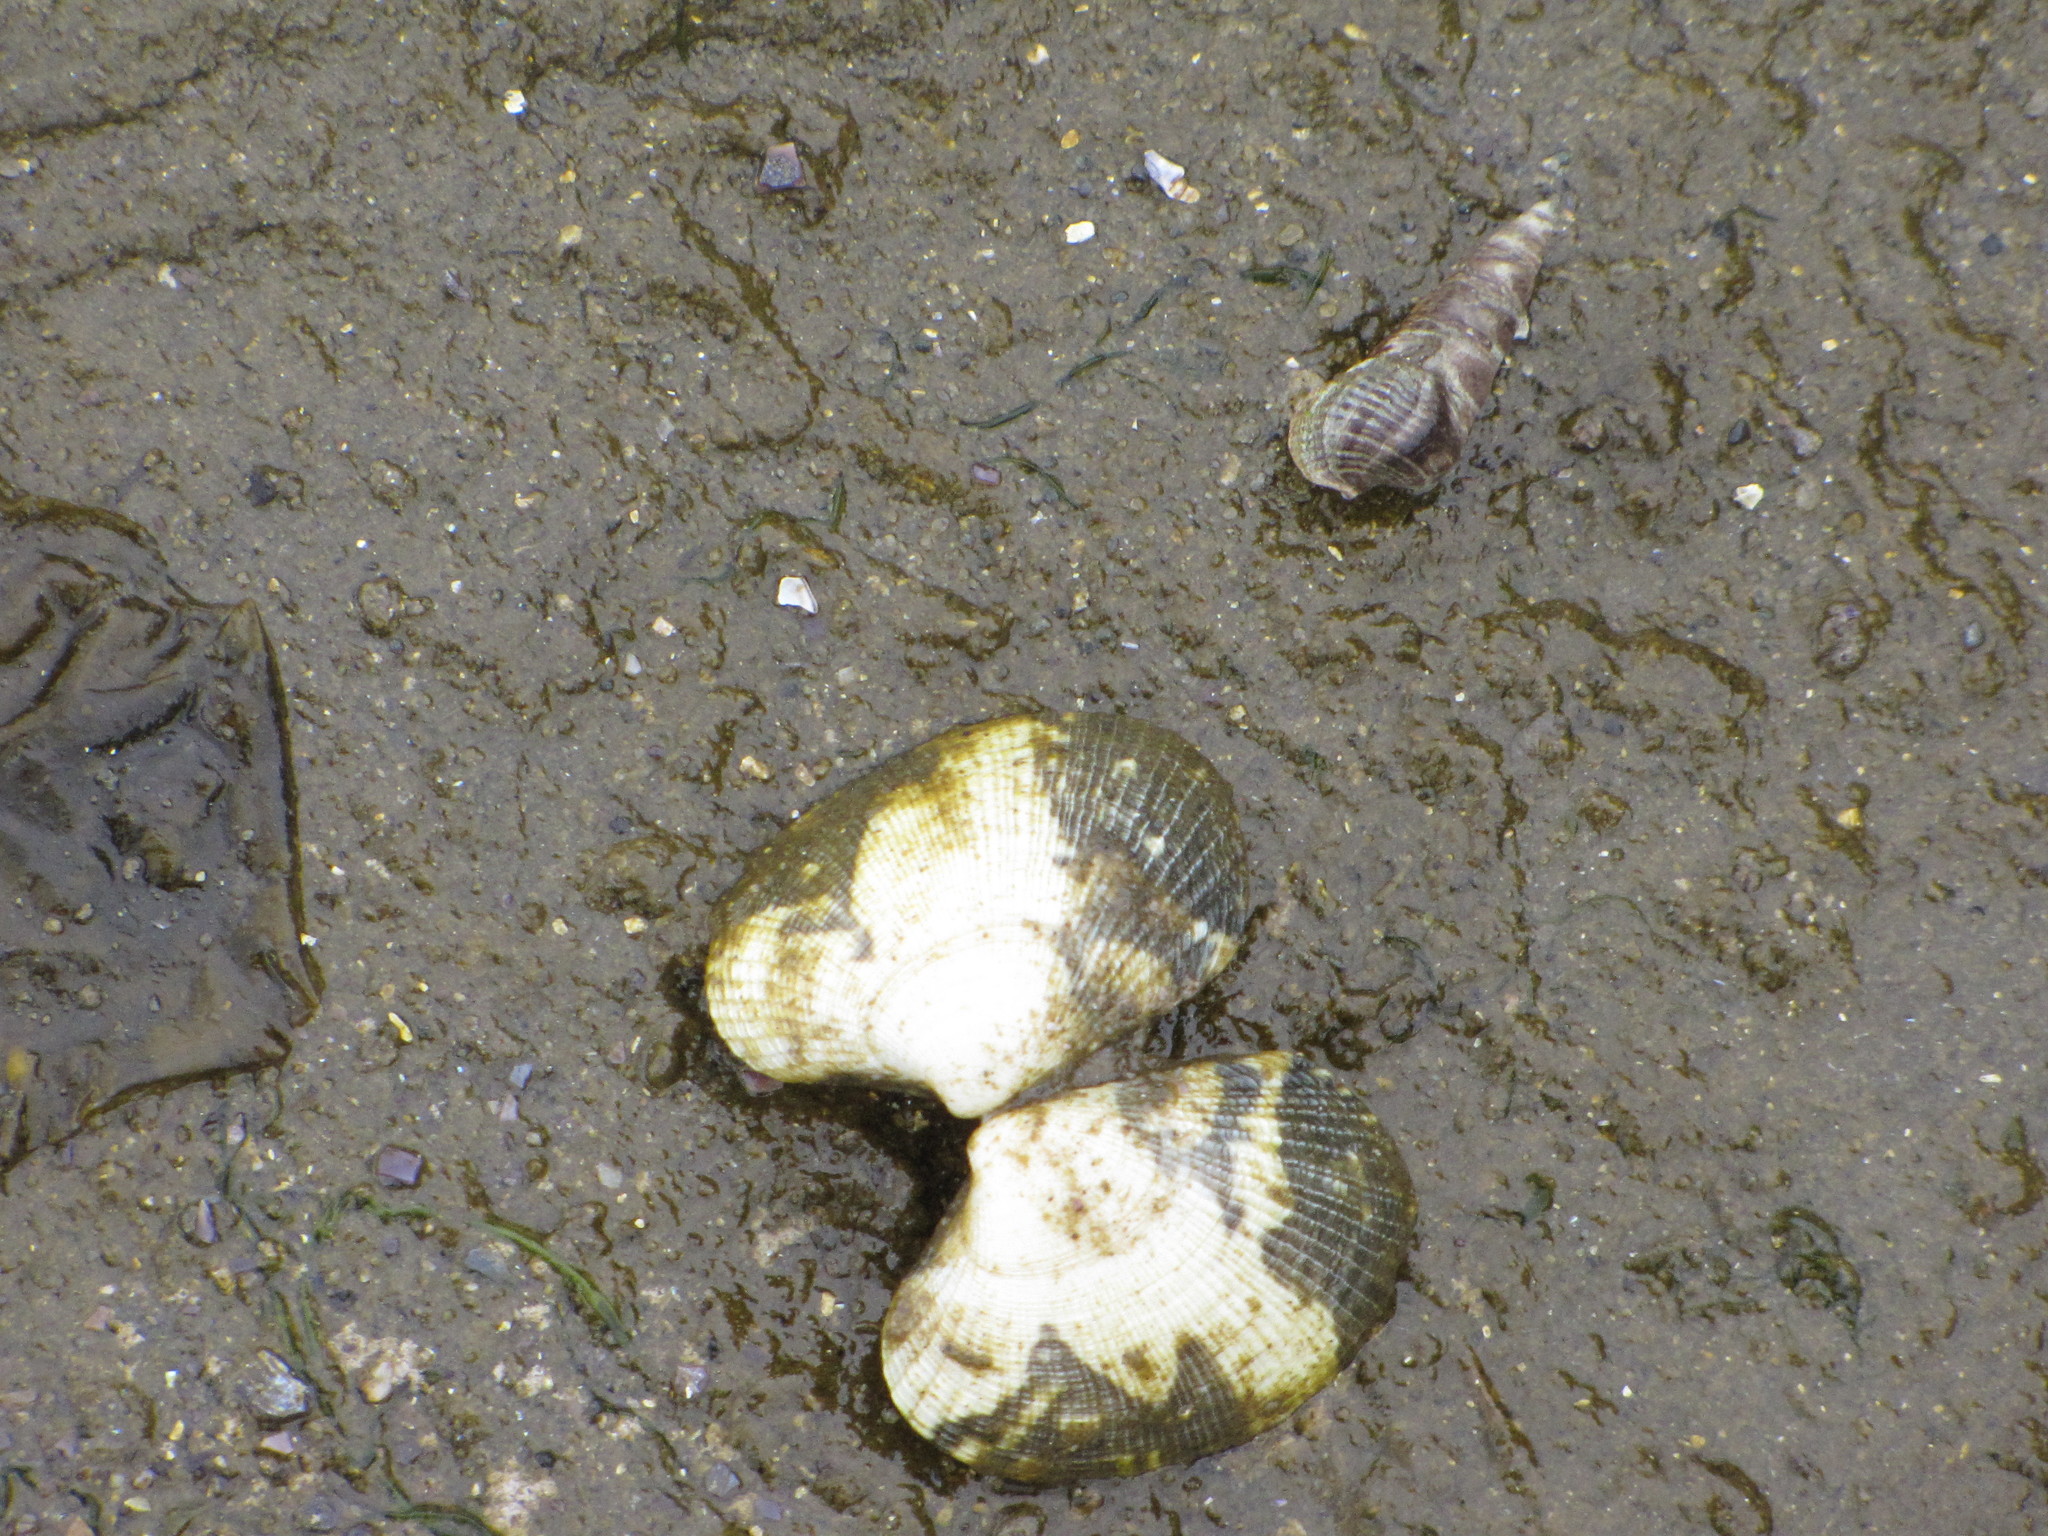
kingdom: Animalia
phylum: Mollusca
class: Bivalvia
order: Venerida
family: Veneridae
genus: Ruditapes
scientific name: Ruditapes philippinarum
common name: Manila clam
